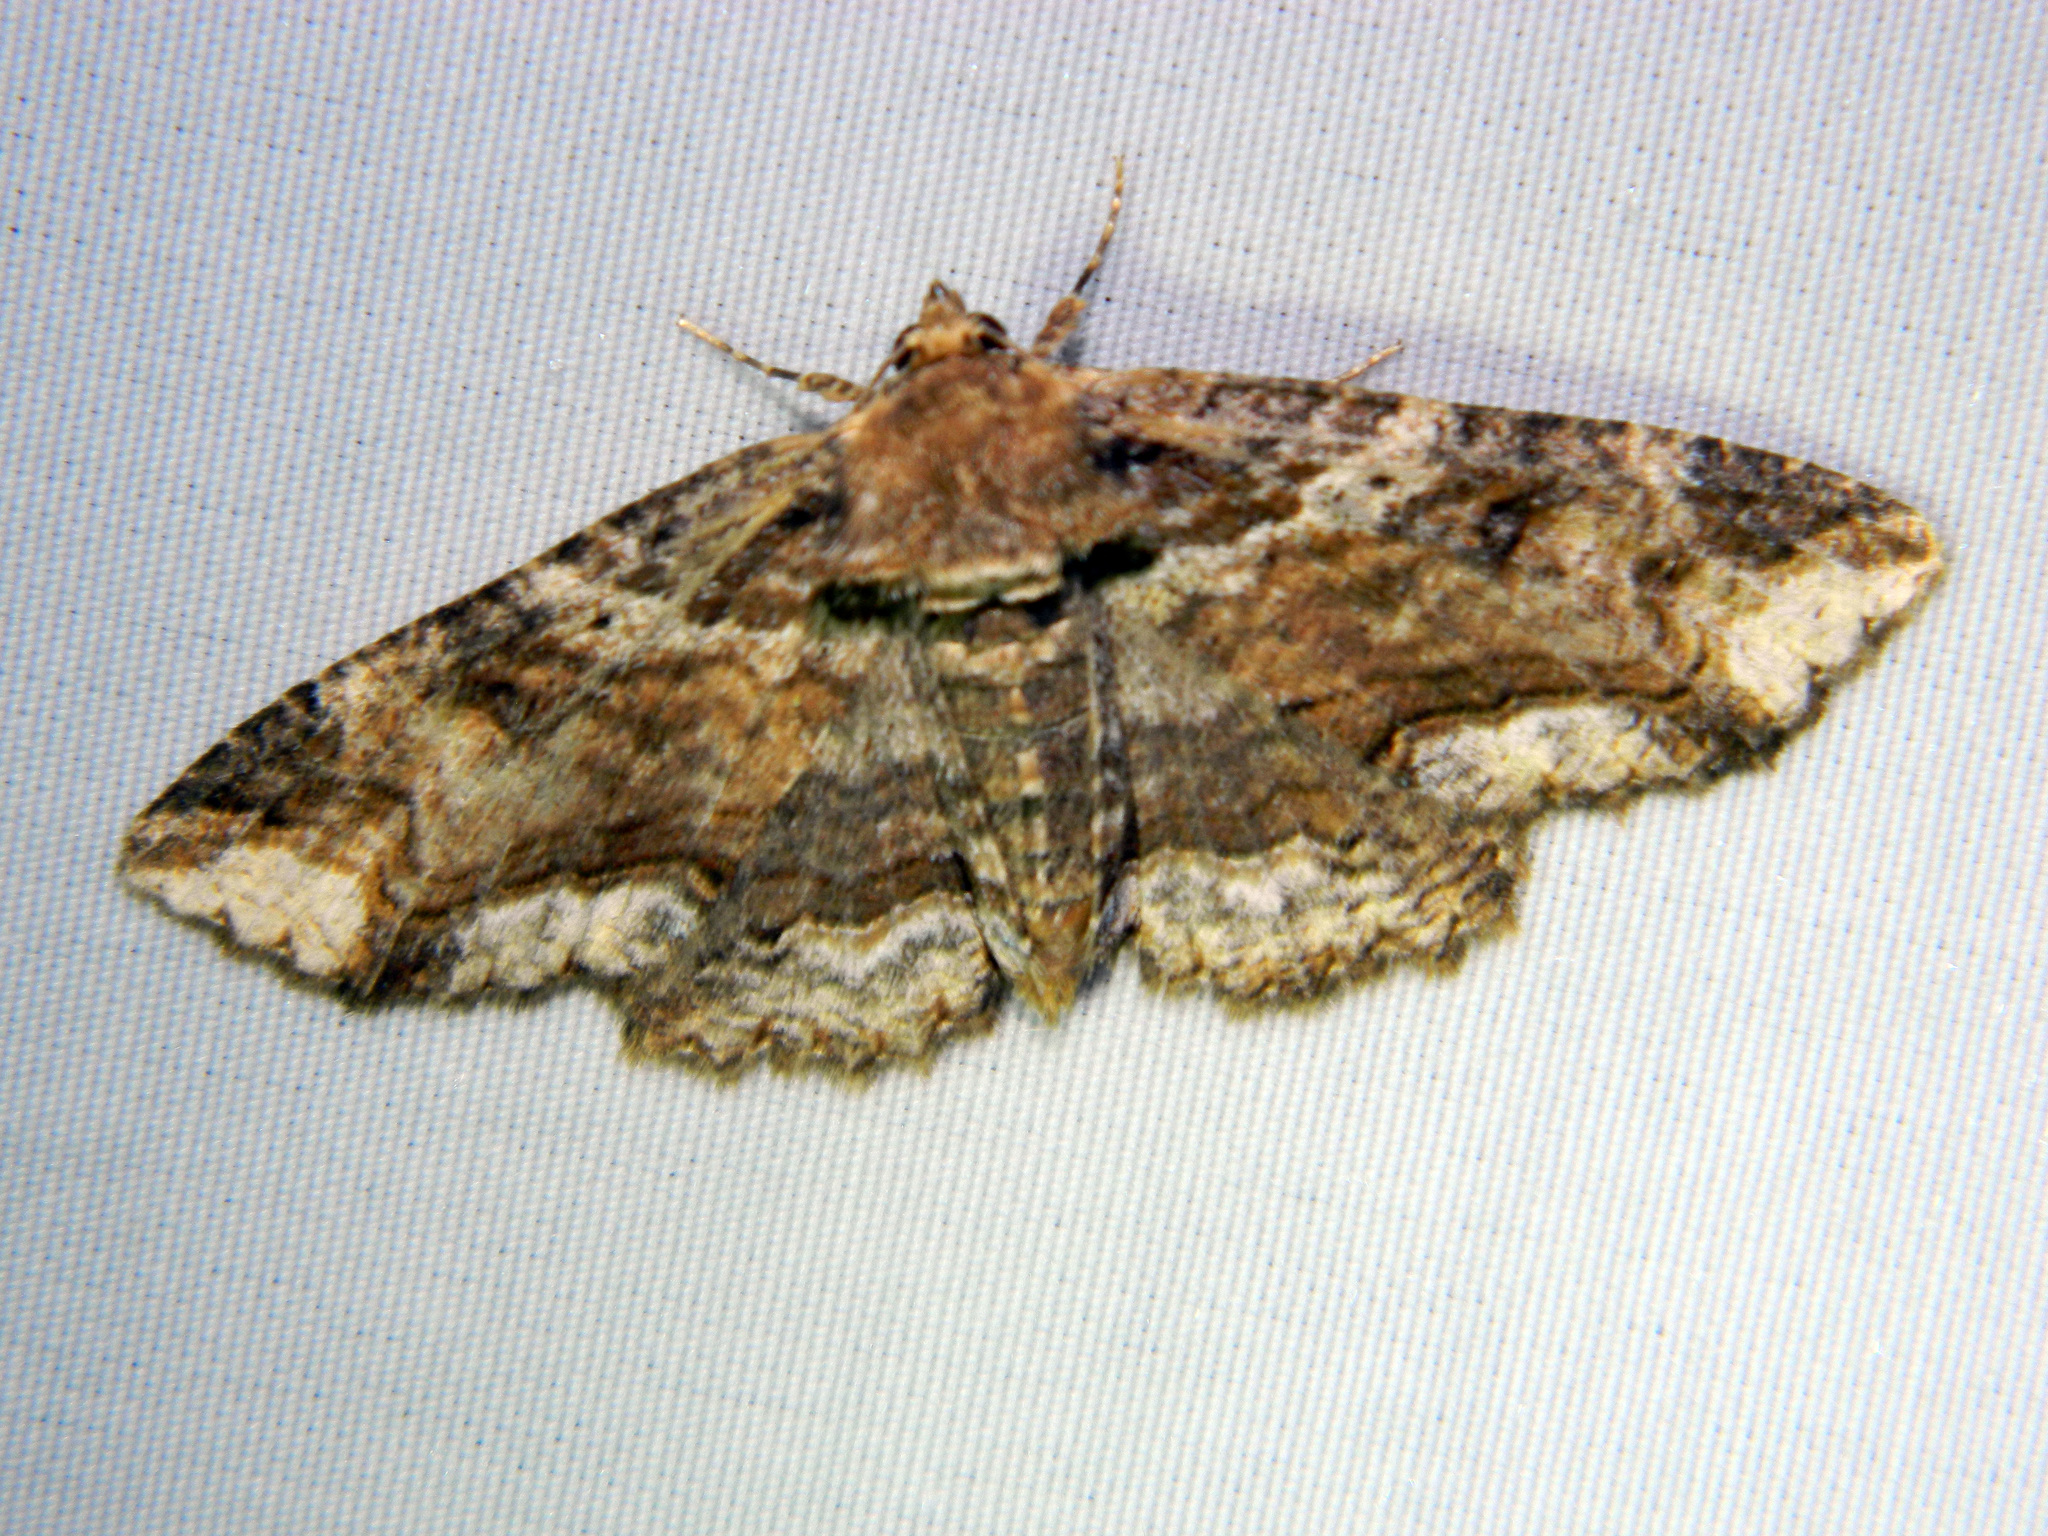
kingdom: Animalia
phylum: Arthropoda
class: Insecta
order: Lepidoptera
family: Erebidae
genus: Zale
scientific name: Zale minerea
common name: Colorful zale moth
